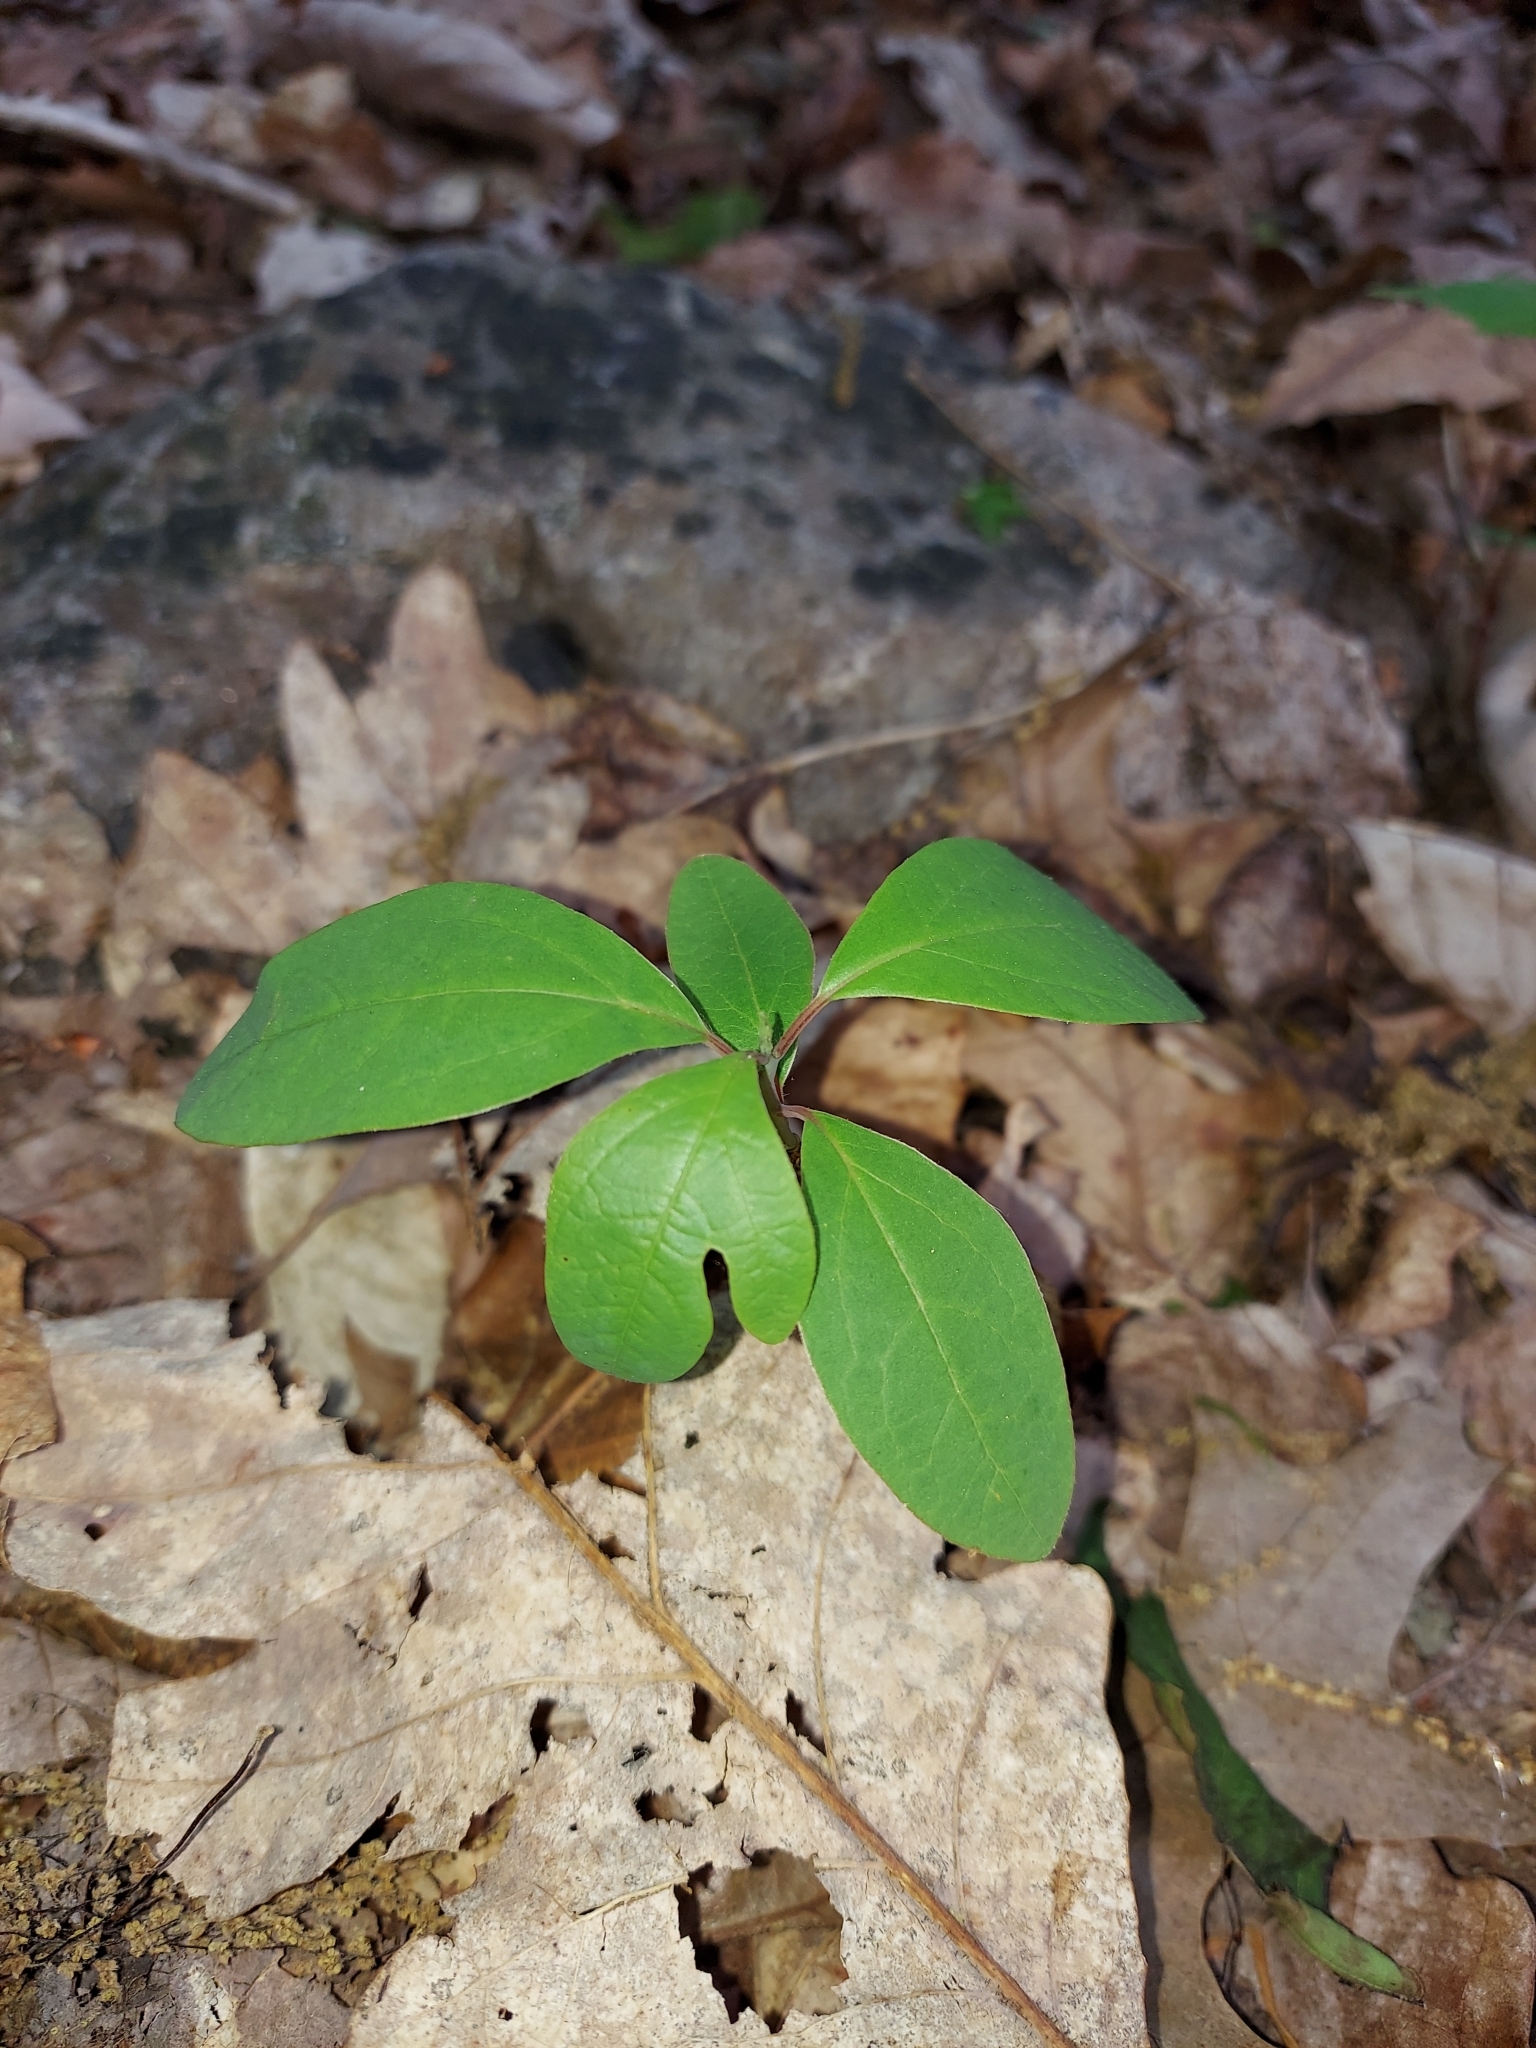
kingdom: Plantae
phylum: Tracheophyta
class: Magnoliopsida
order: Laurales
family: Lauraceae
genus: Sassafras
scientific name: Sassafras albidum
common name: Sassafras
